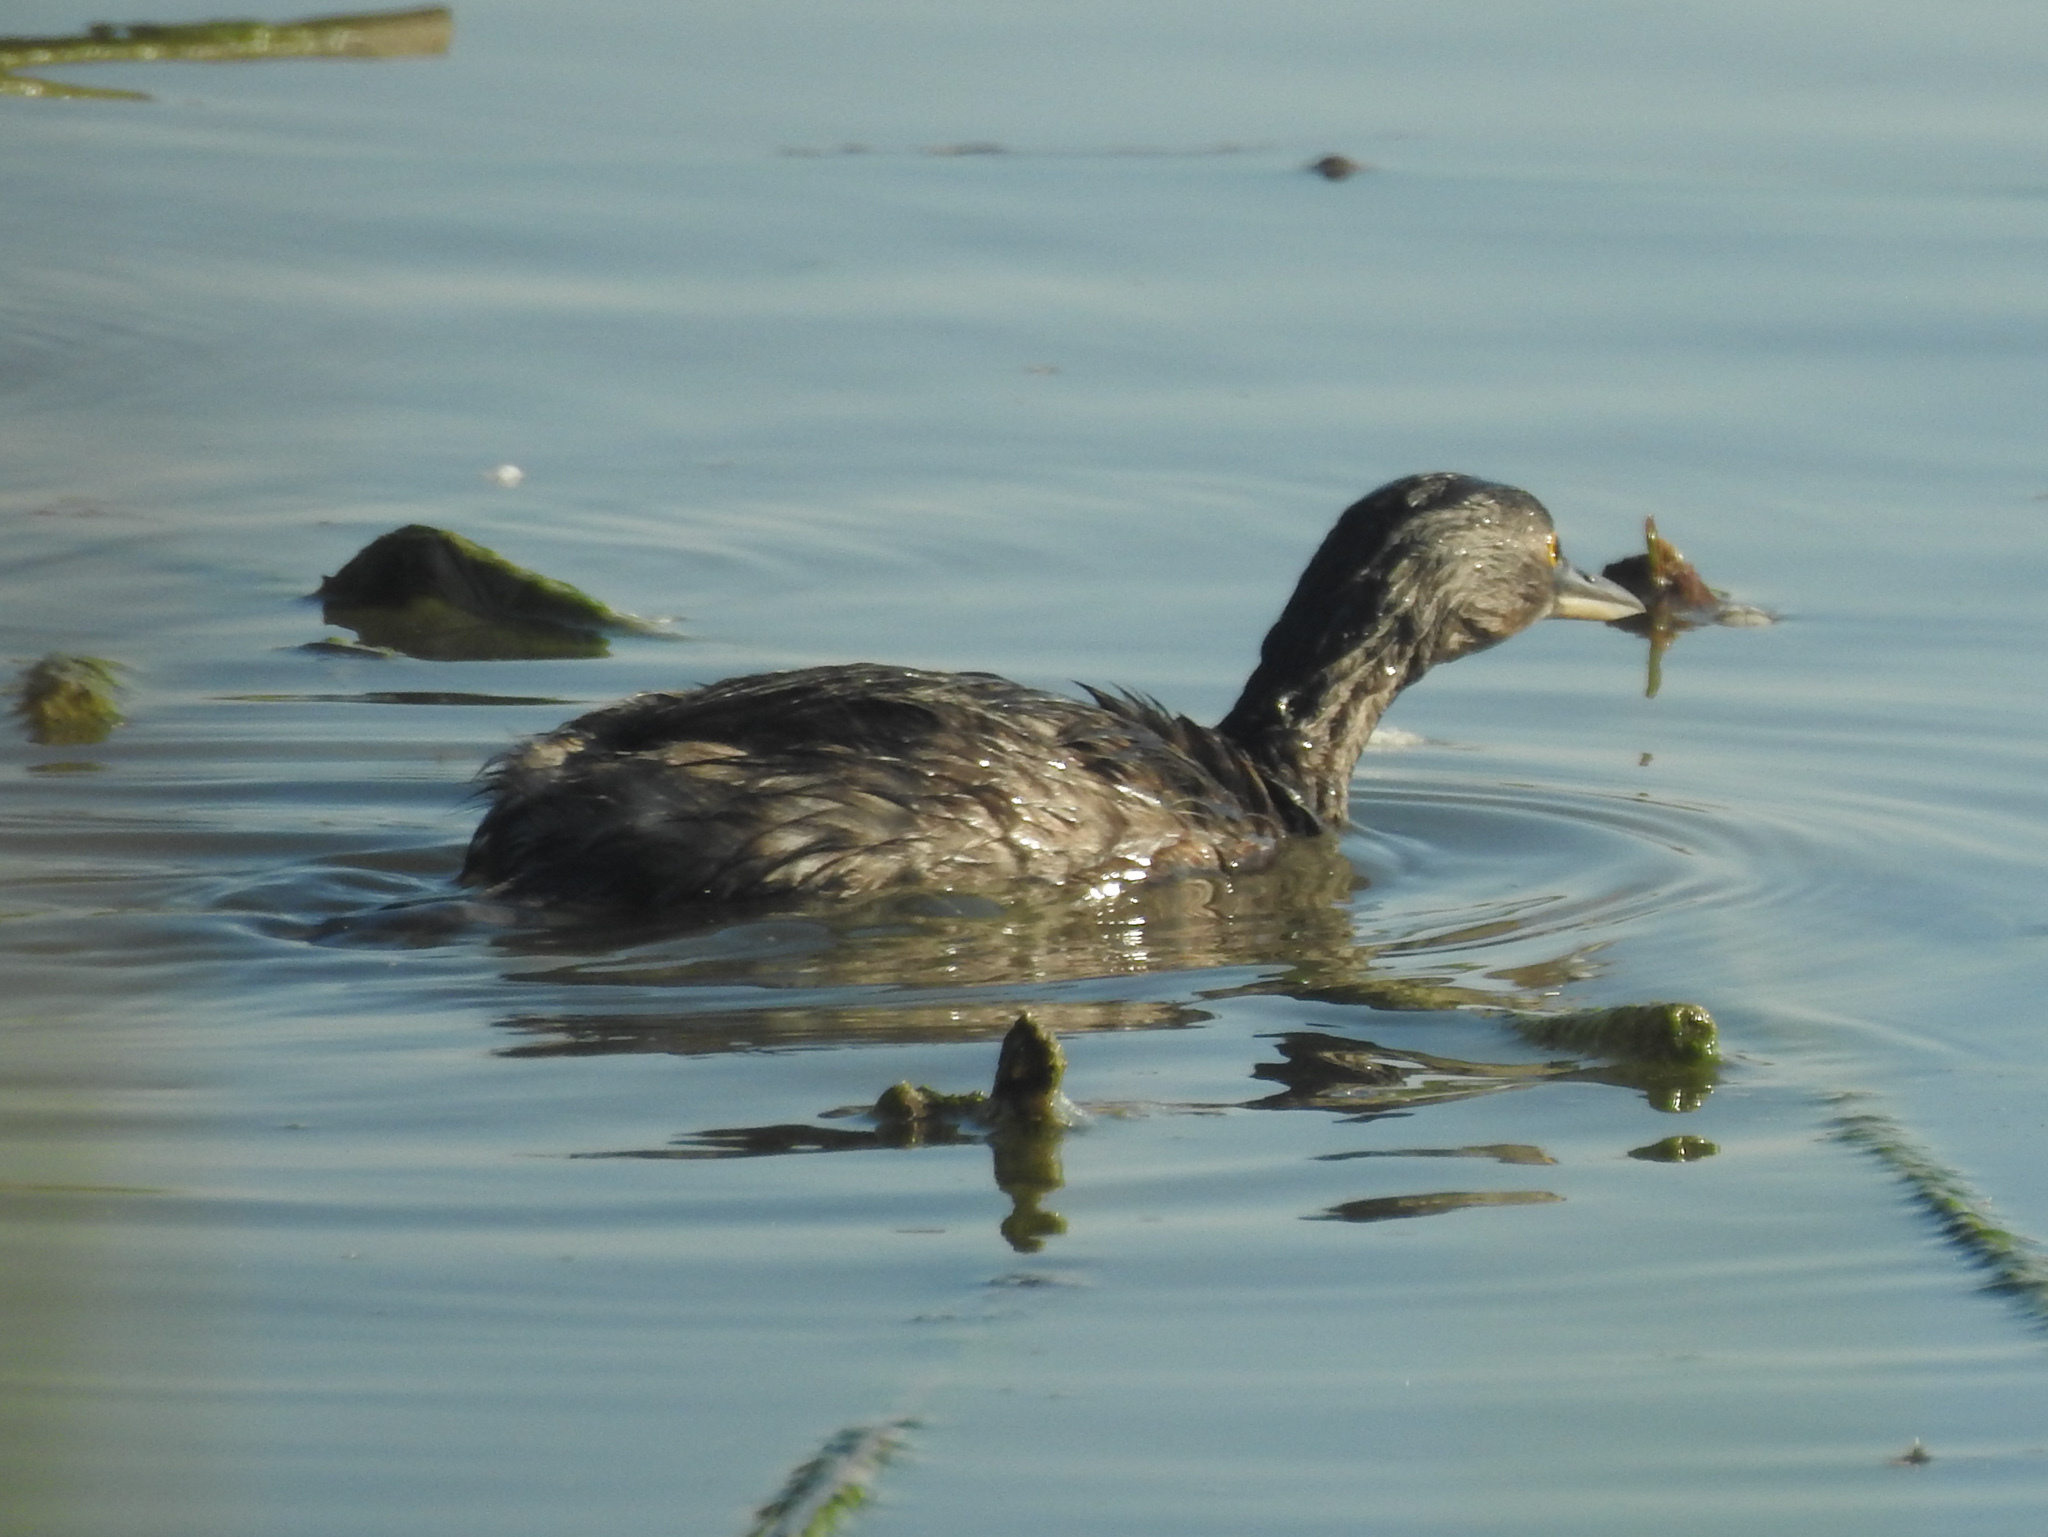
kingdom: Animalia
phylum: Chordata
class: Aves
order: Podicipediformes
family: Podicipedidae
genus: Tachybaptus
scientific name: Tachybaptus dominicus
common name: Least grebe
